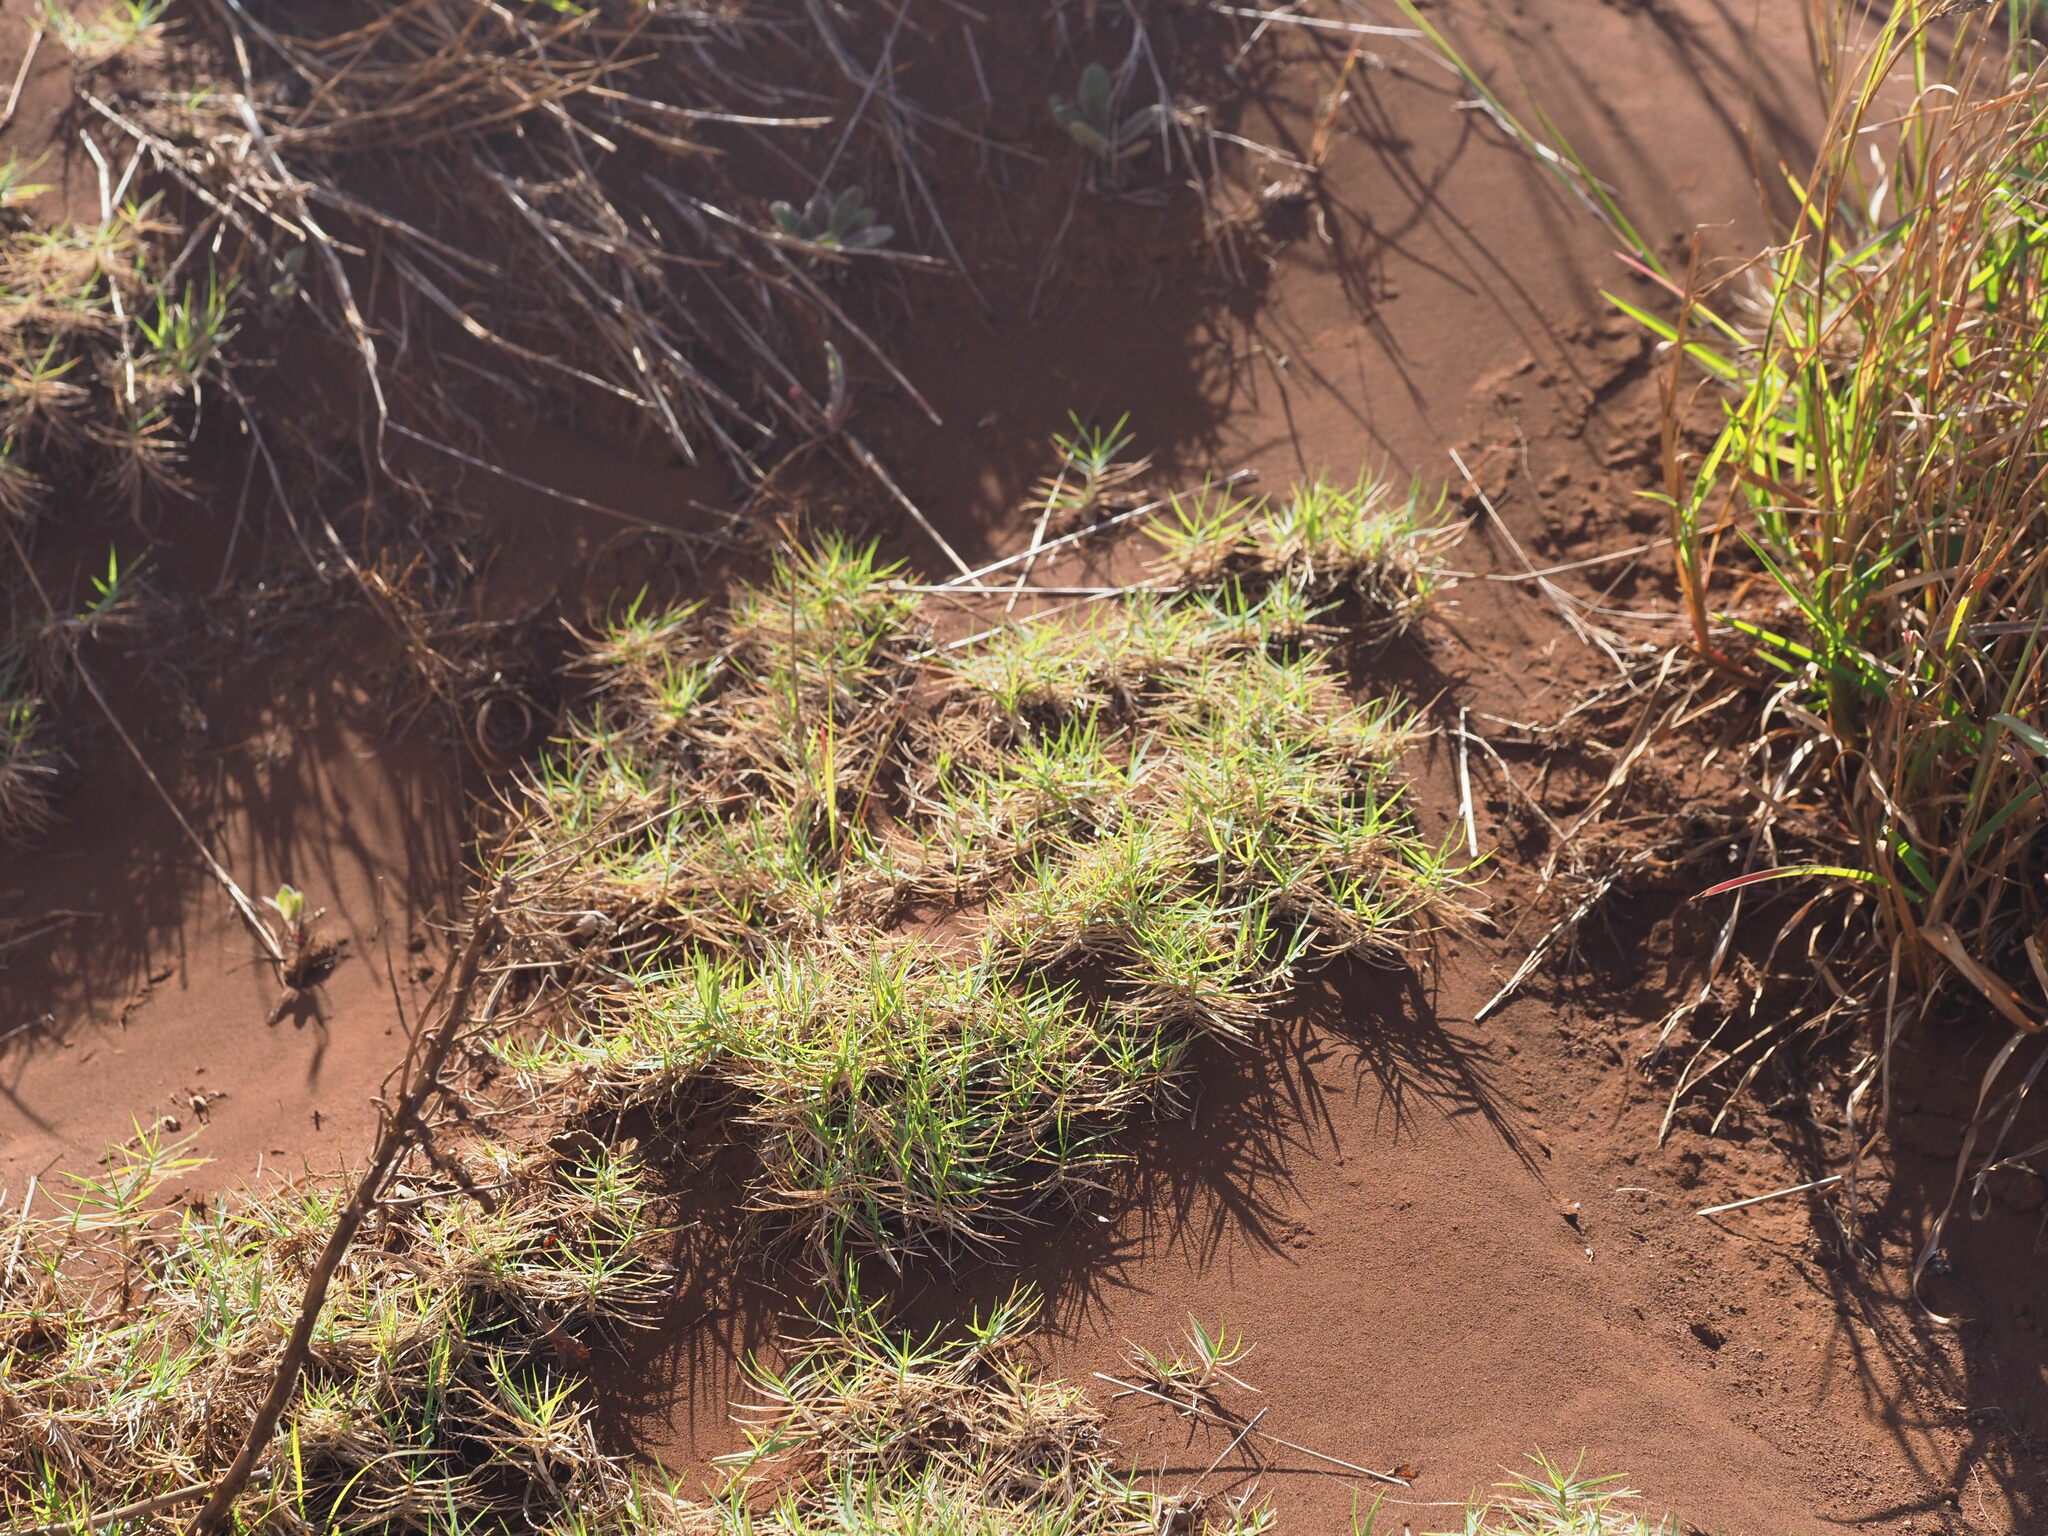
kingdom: Plantae
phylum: Tracheophyta
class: Liliopsida
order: Poales
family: Poaceae
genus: Cynodon
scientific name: Cynodon dactylon
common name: Bermuda grass
